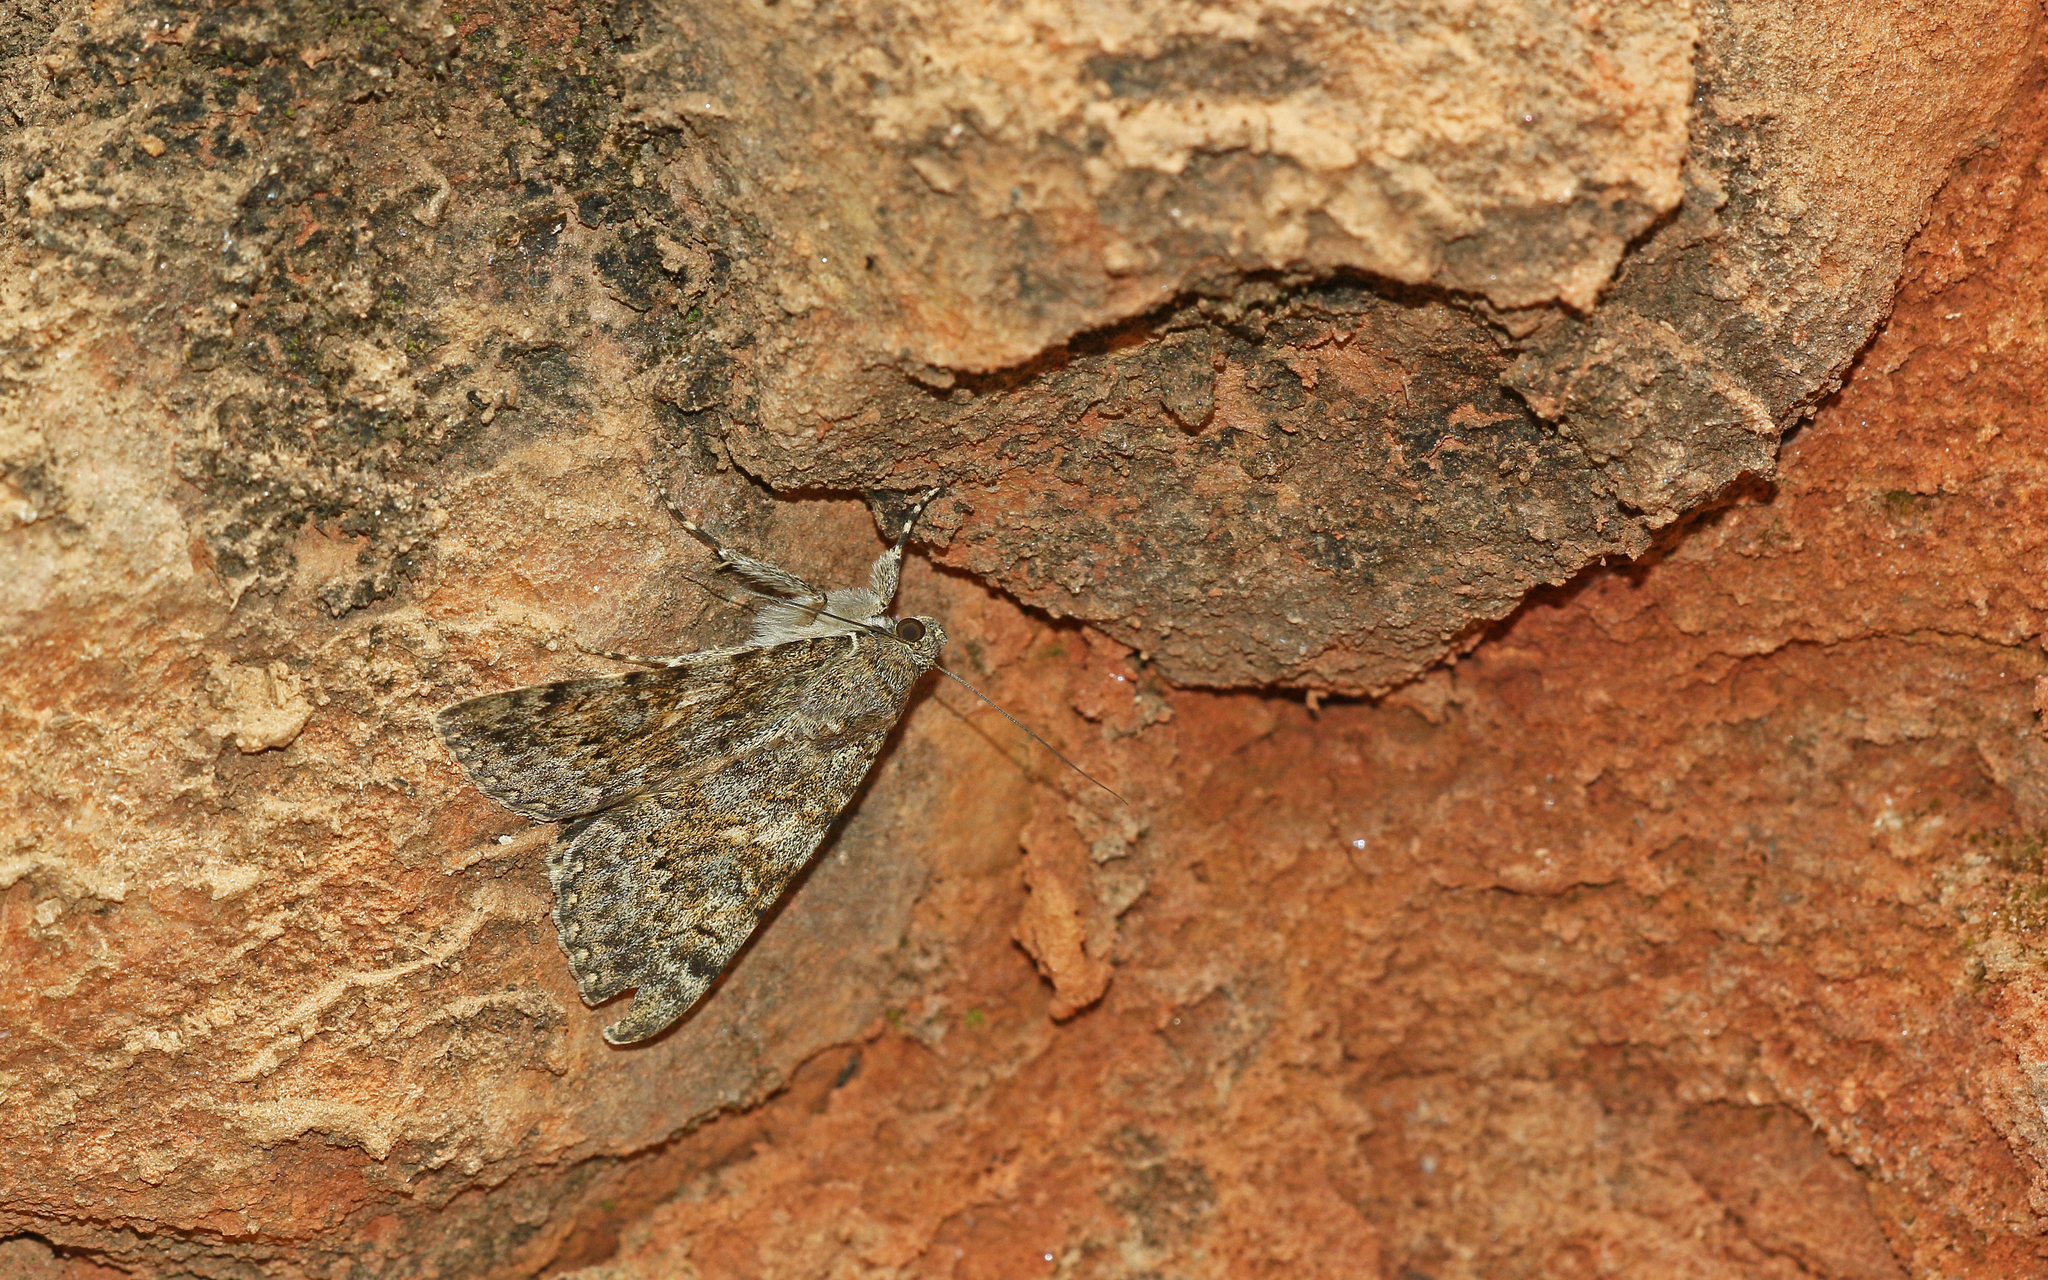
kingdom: Animalia
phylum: Arthropoda
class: Insecta
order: Lepidoptera
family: Erebidae
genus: Catocala
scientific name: Catocala nymphaea
